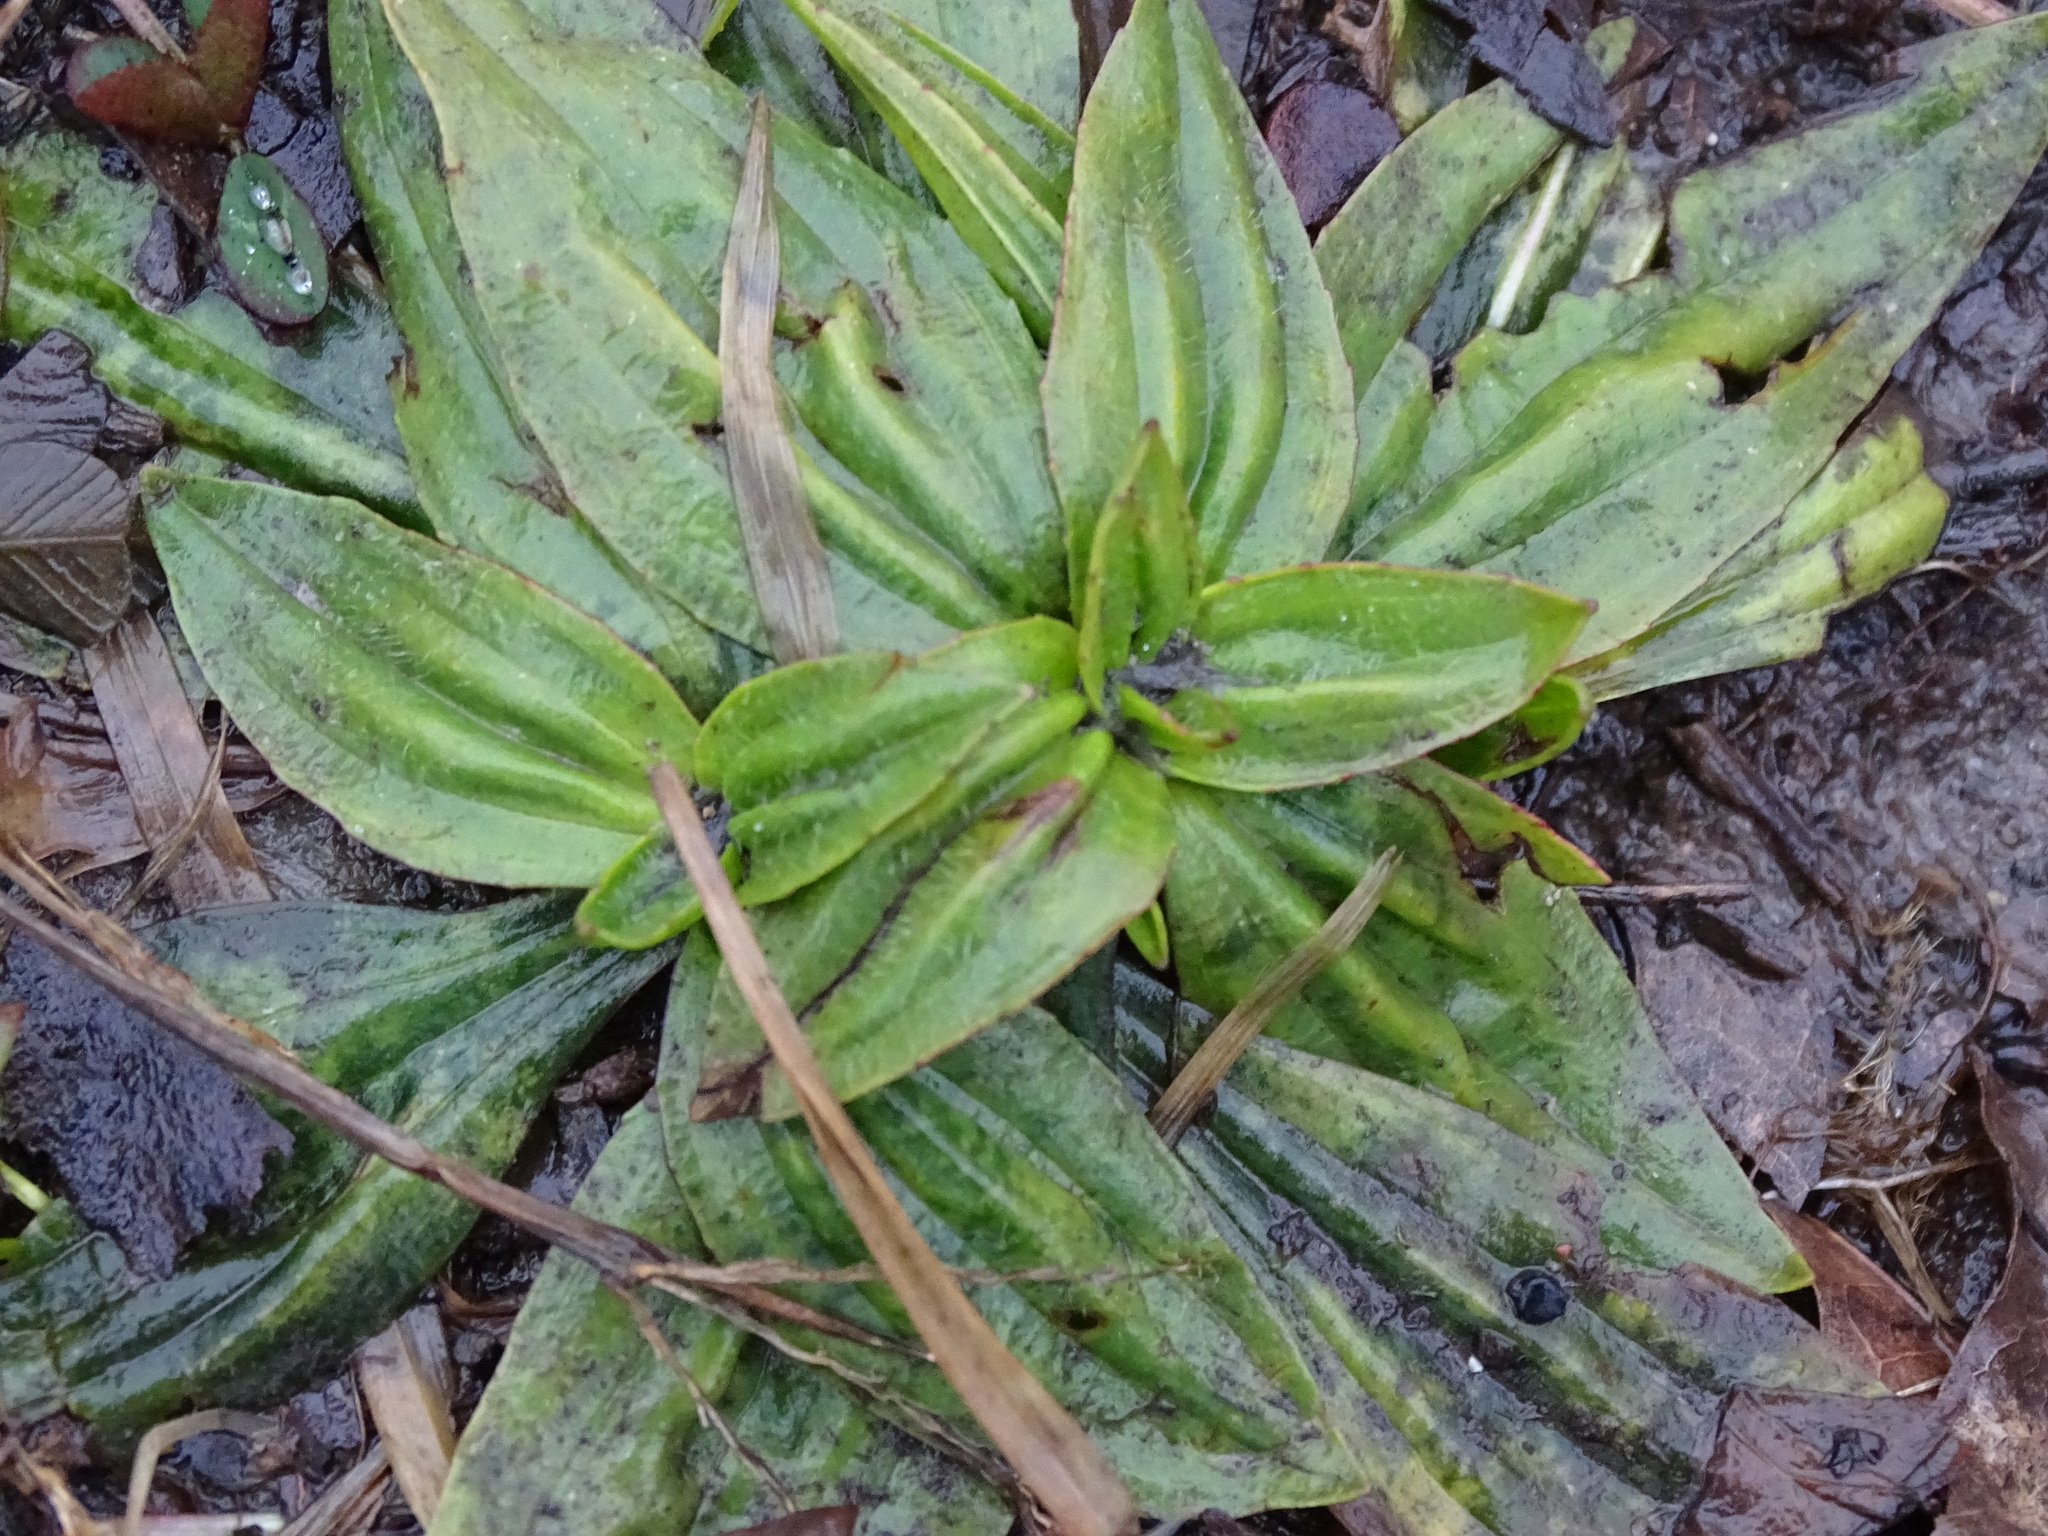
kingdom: Plantae
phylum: Tracheophyta
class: Magnoliopsida
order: Lamiales
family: Plantaginaceae
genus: Plantago
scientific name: Plantago lanceolata
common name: Ribwort plantain
